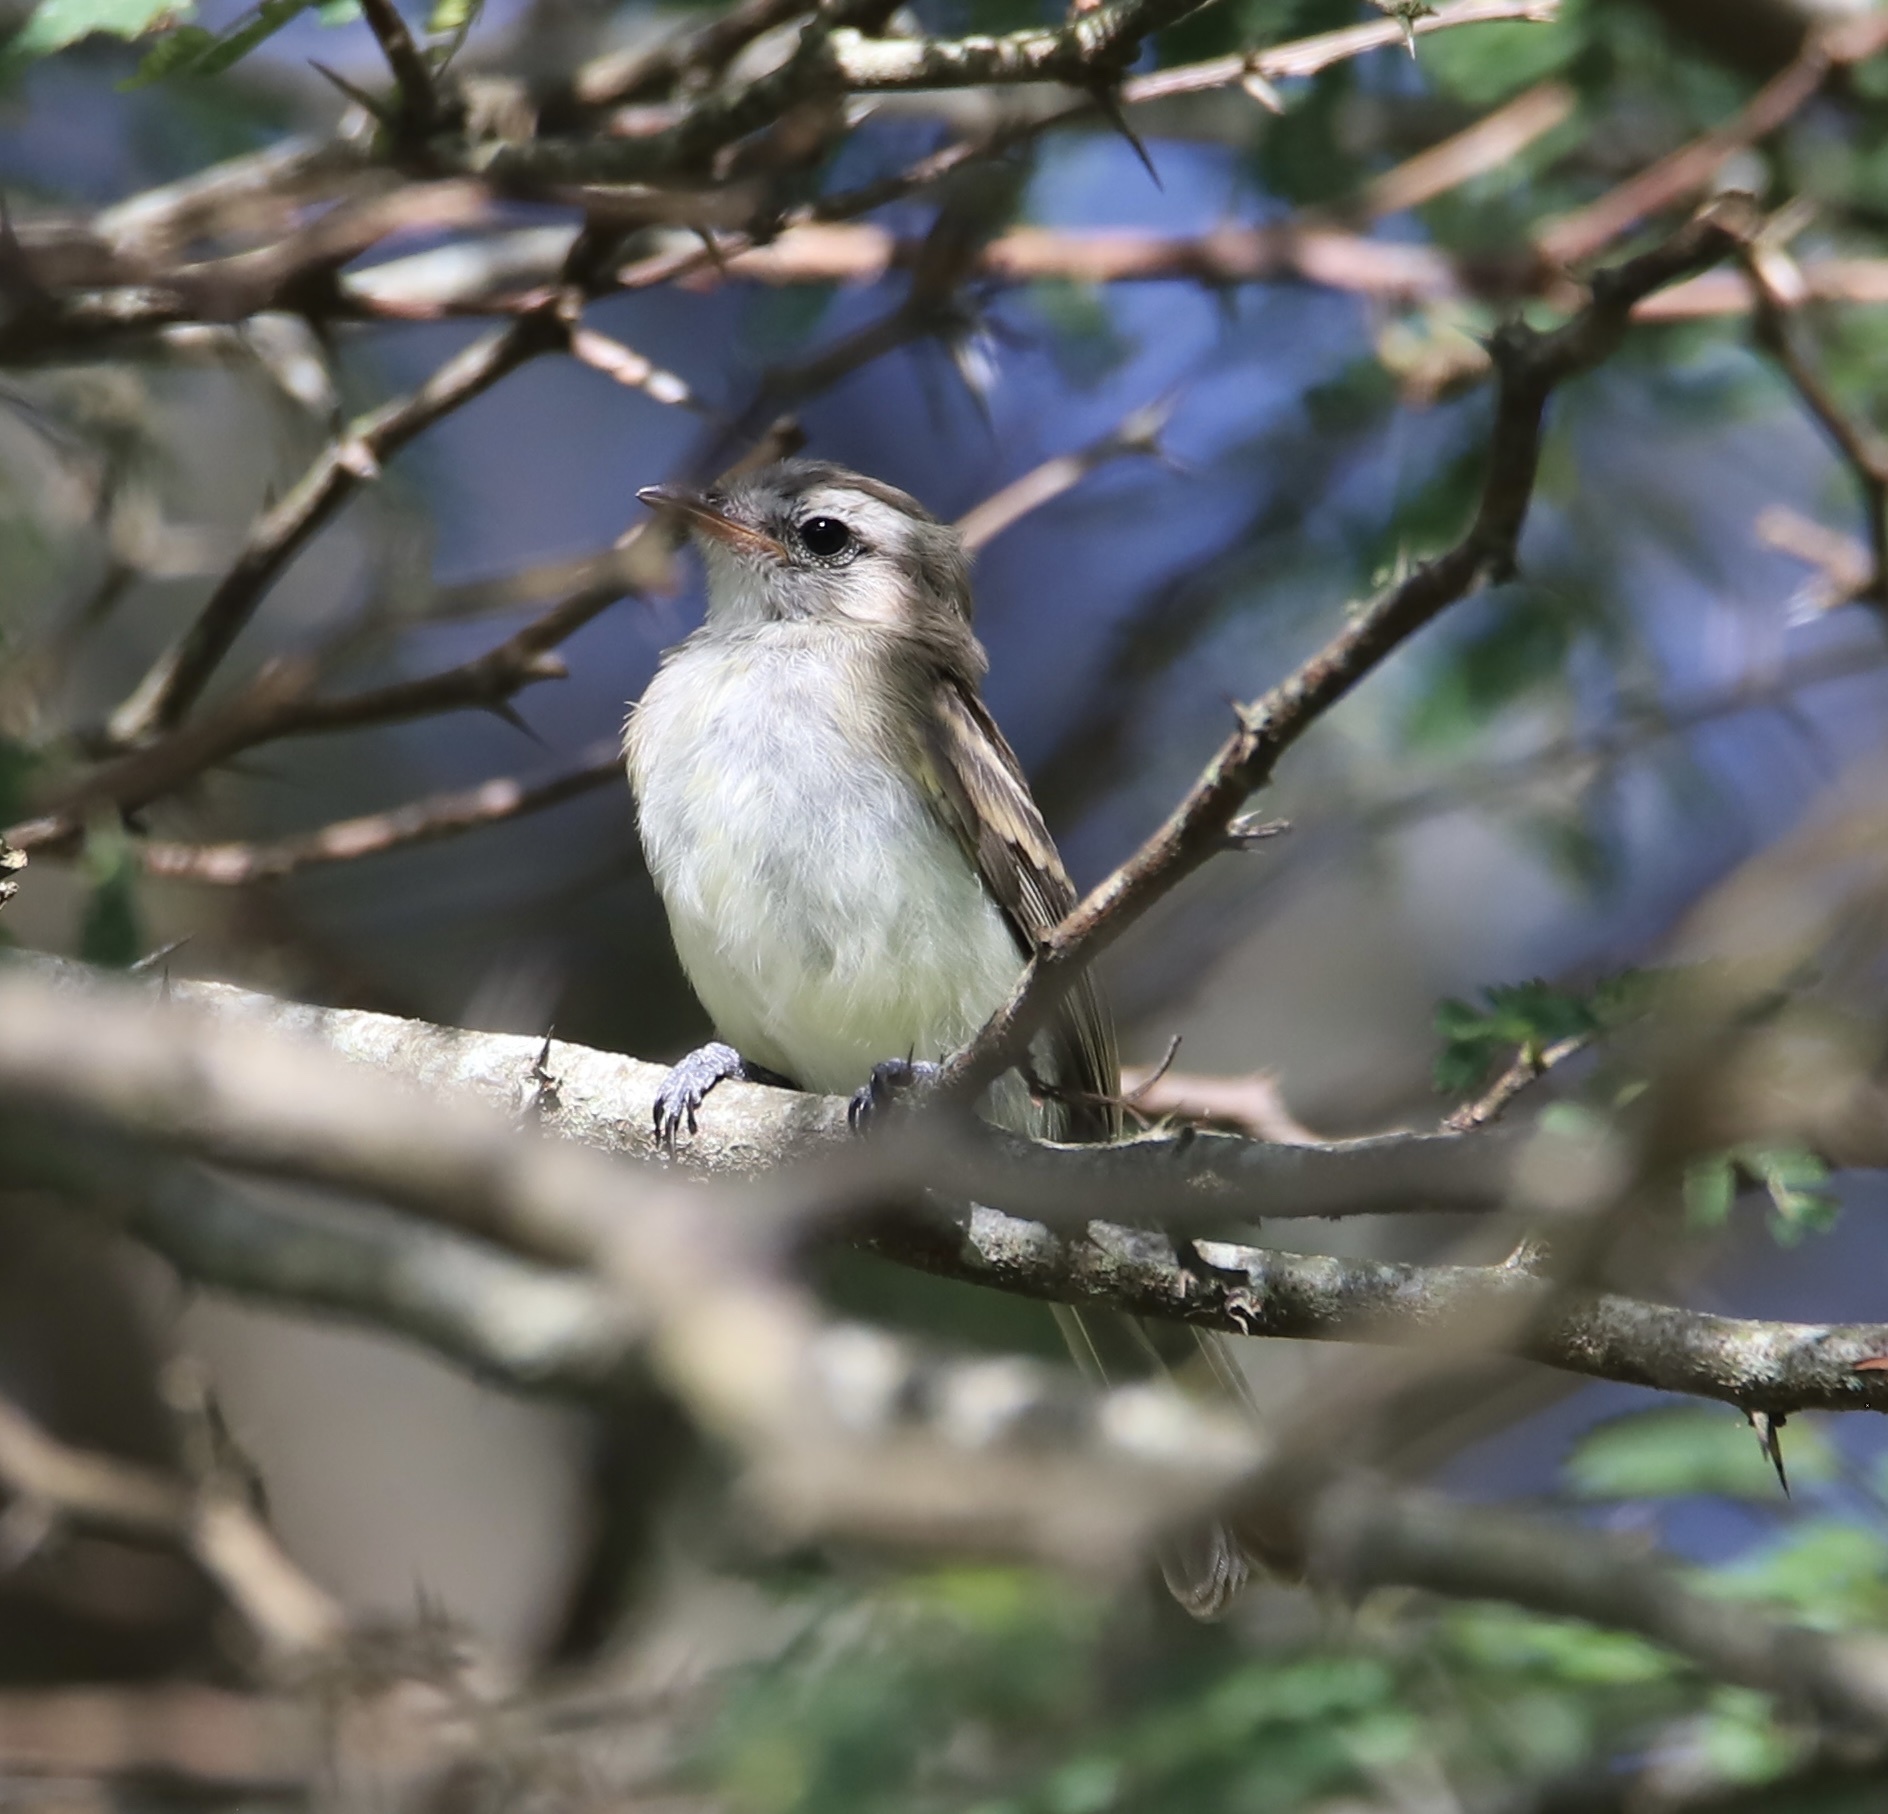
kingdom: Animalia
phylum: Chordata
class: Aves
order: Passeriformes
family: Tyrannidae
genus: Phaeomyias
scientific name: Phaeomyias murina
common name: Mouse-colored tyrannulet
